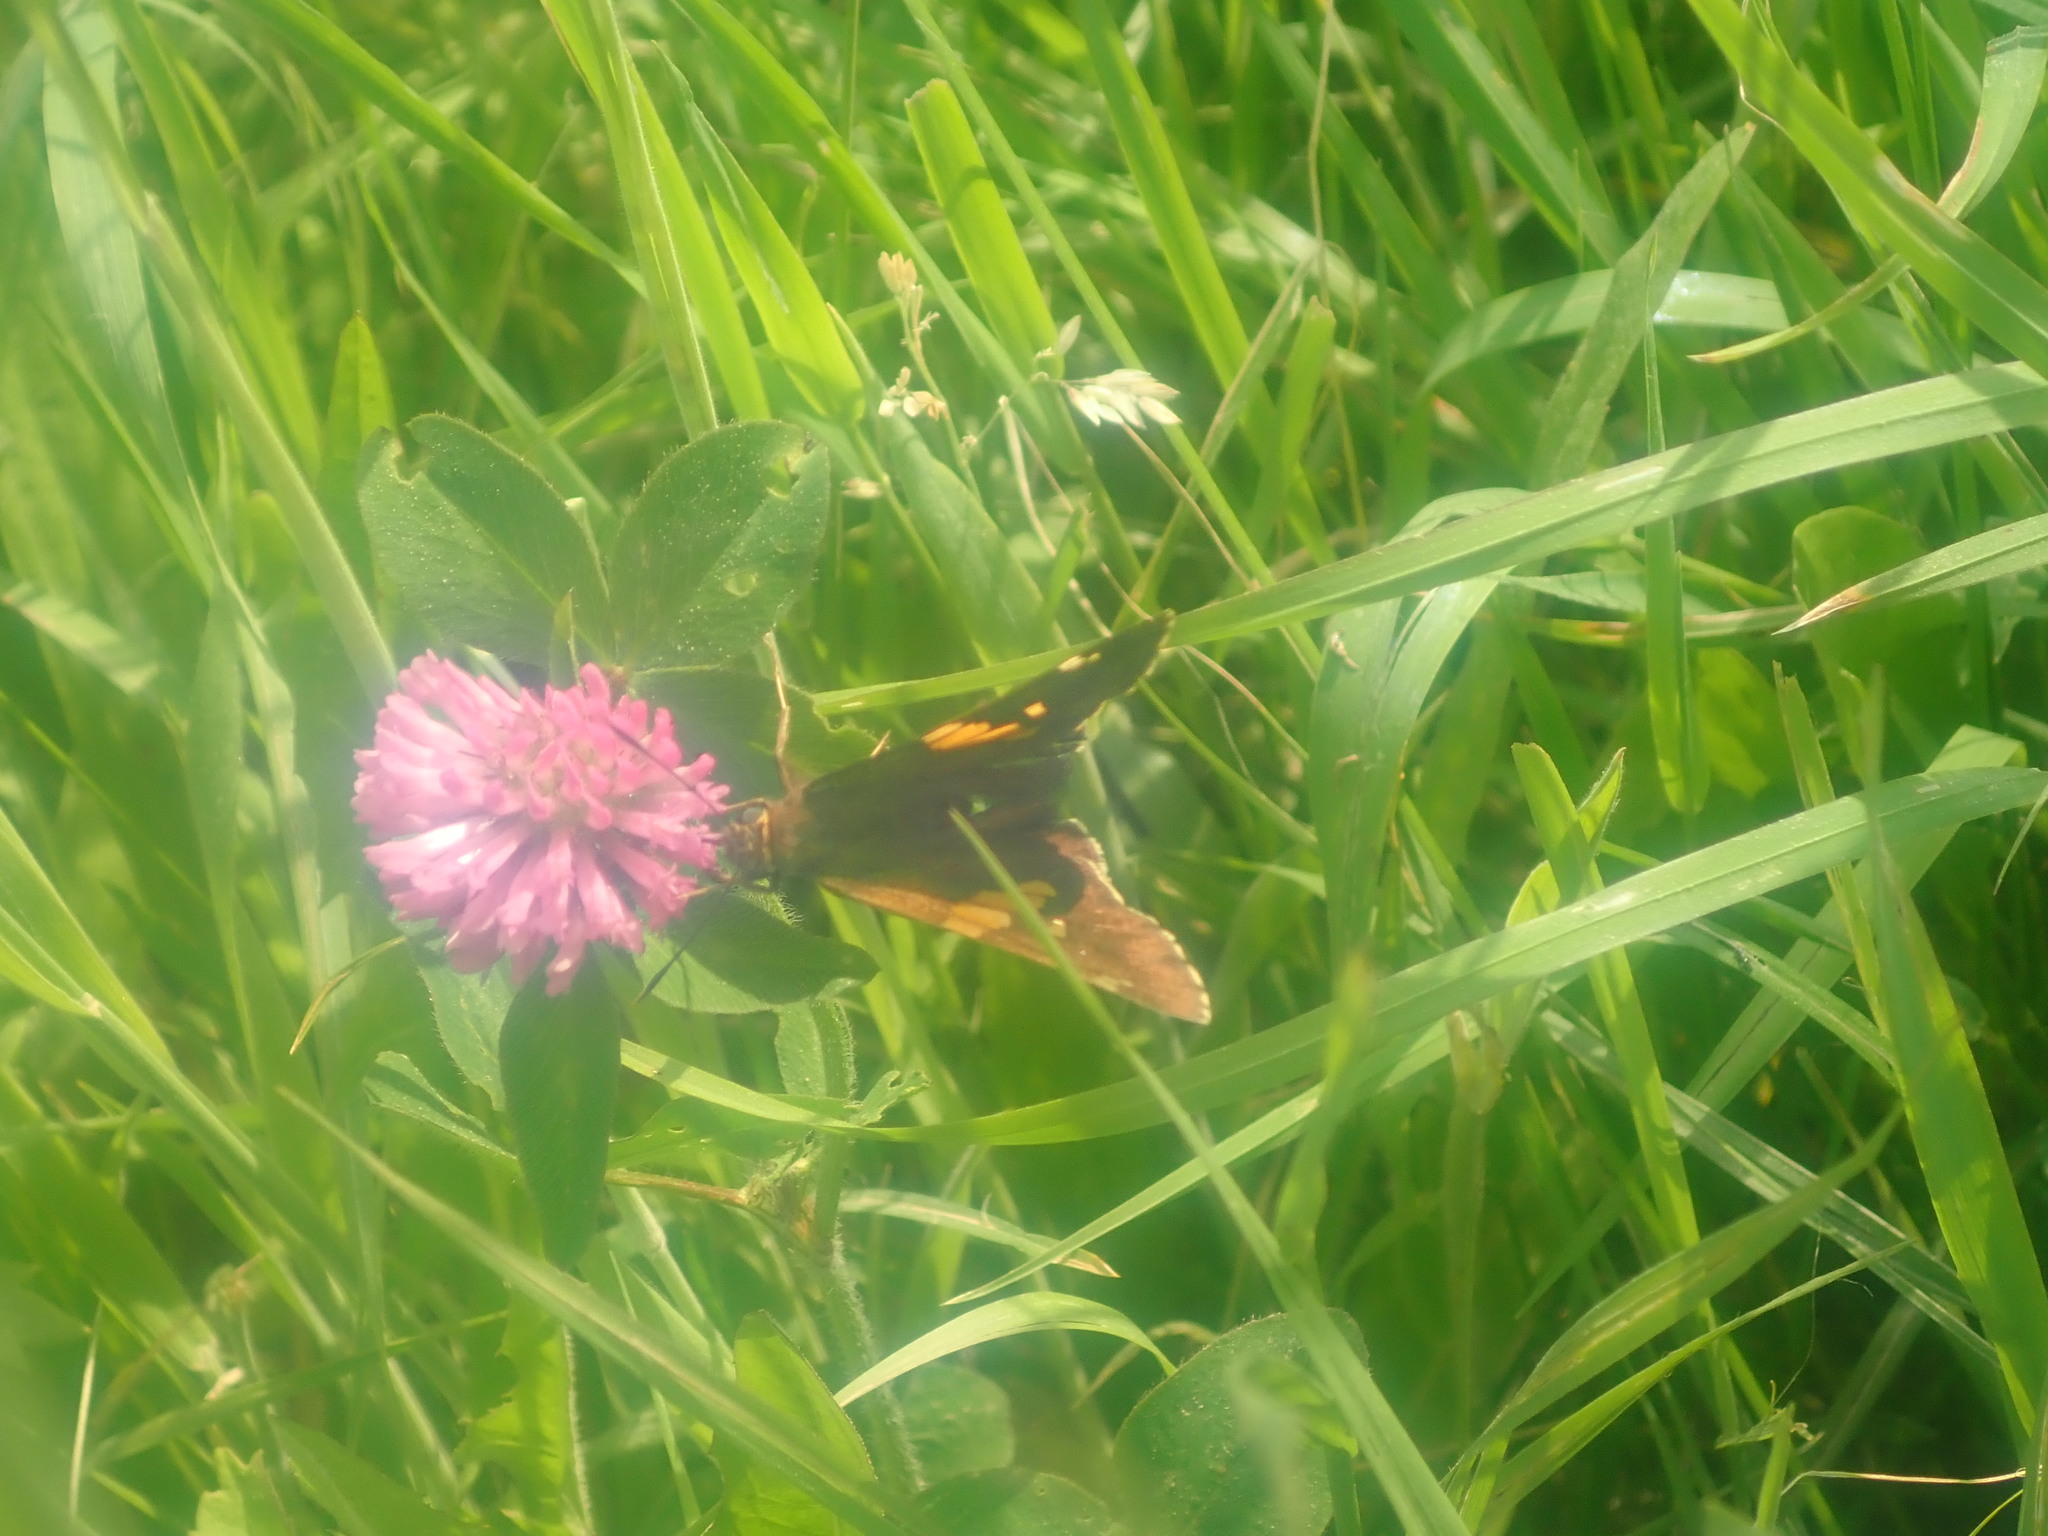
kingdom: Animalia
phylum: Arthropoda
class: Insecta
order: Lepidoptera
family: Hesperiidae
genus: Epargyreus
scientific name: Epargyreus clarus
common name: Silver-spotted skipper
